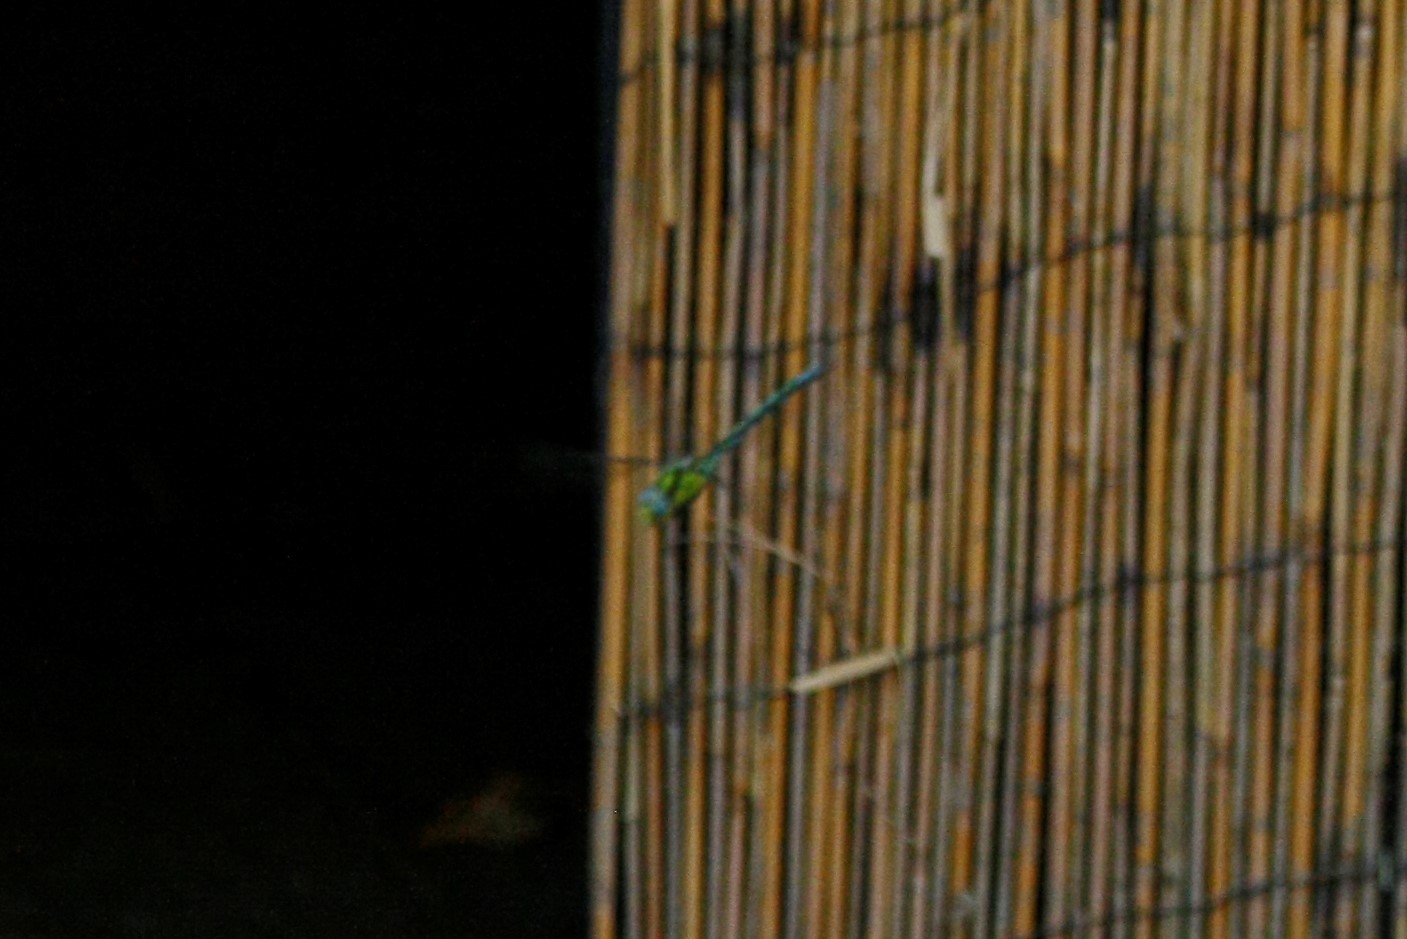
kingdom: Animalia
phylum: Arthropoda
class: Insecta
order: Odonata
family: Aeshnidae
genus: Aeshna
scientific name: Aeshna cyanea
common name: Southern hawker
